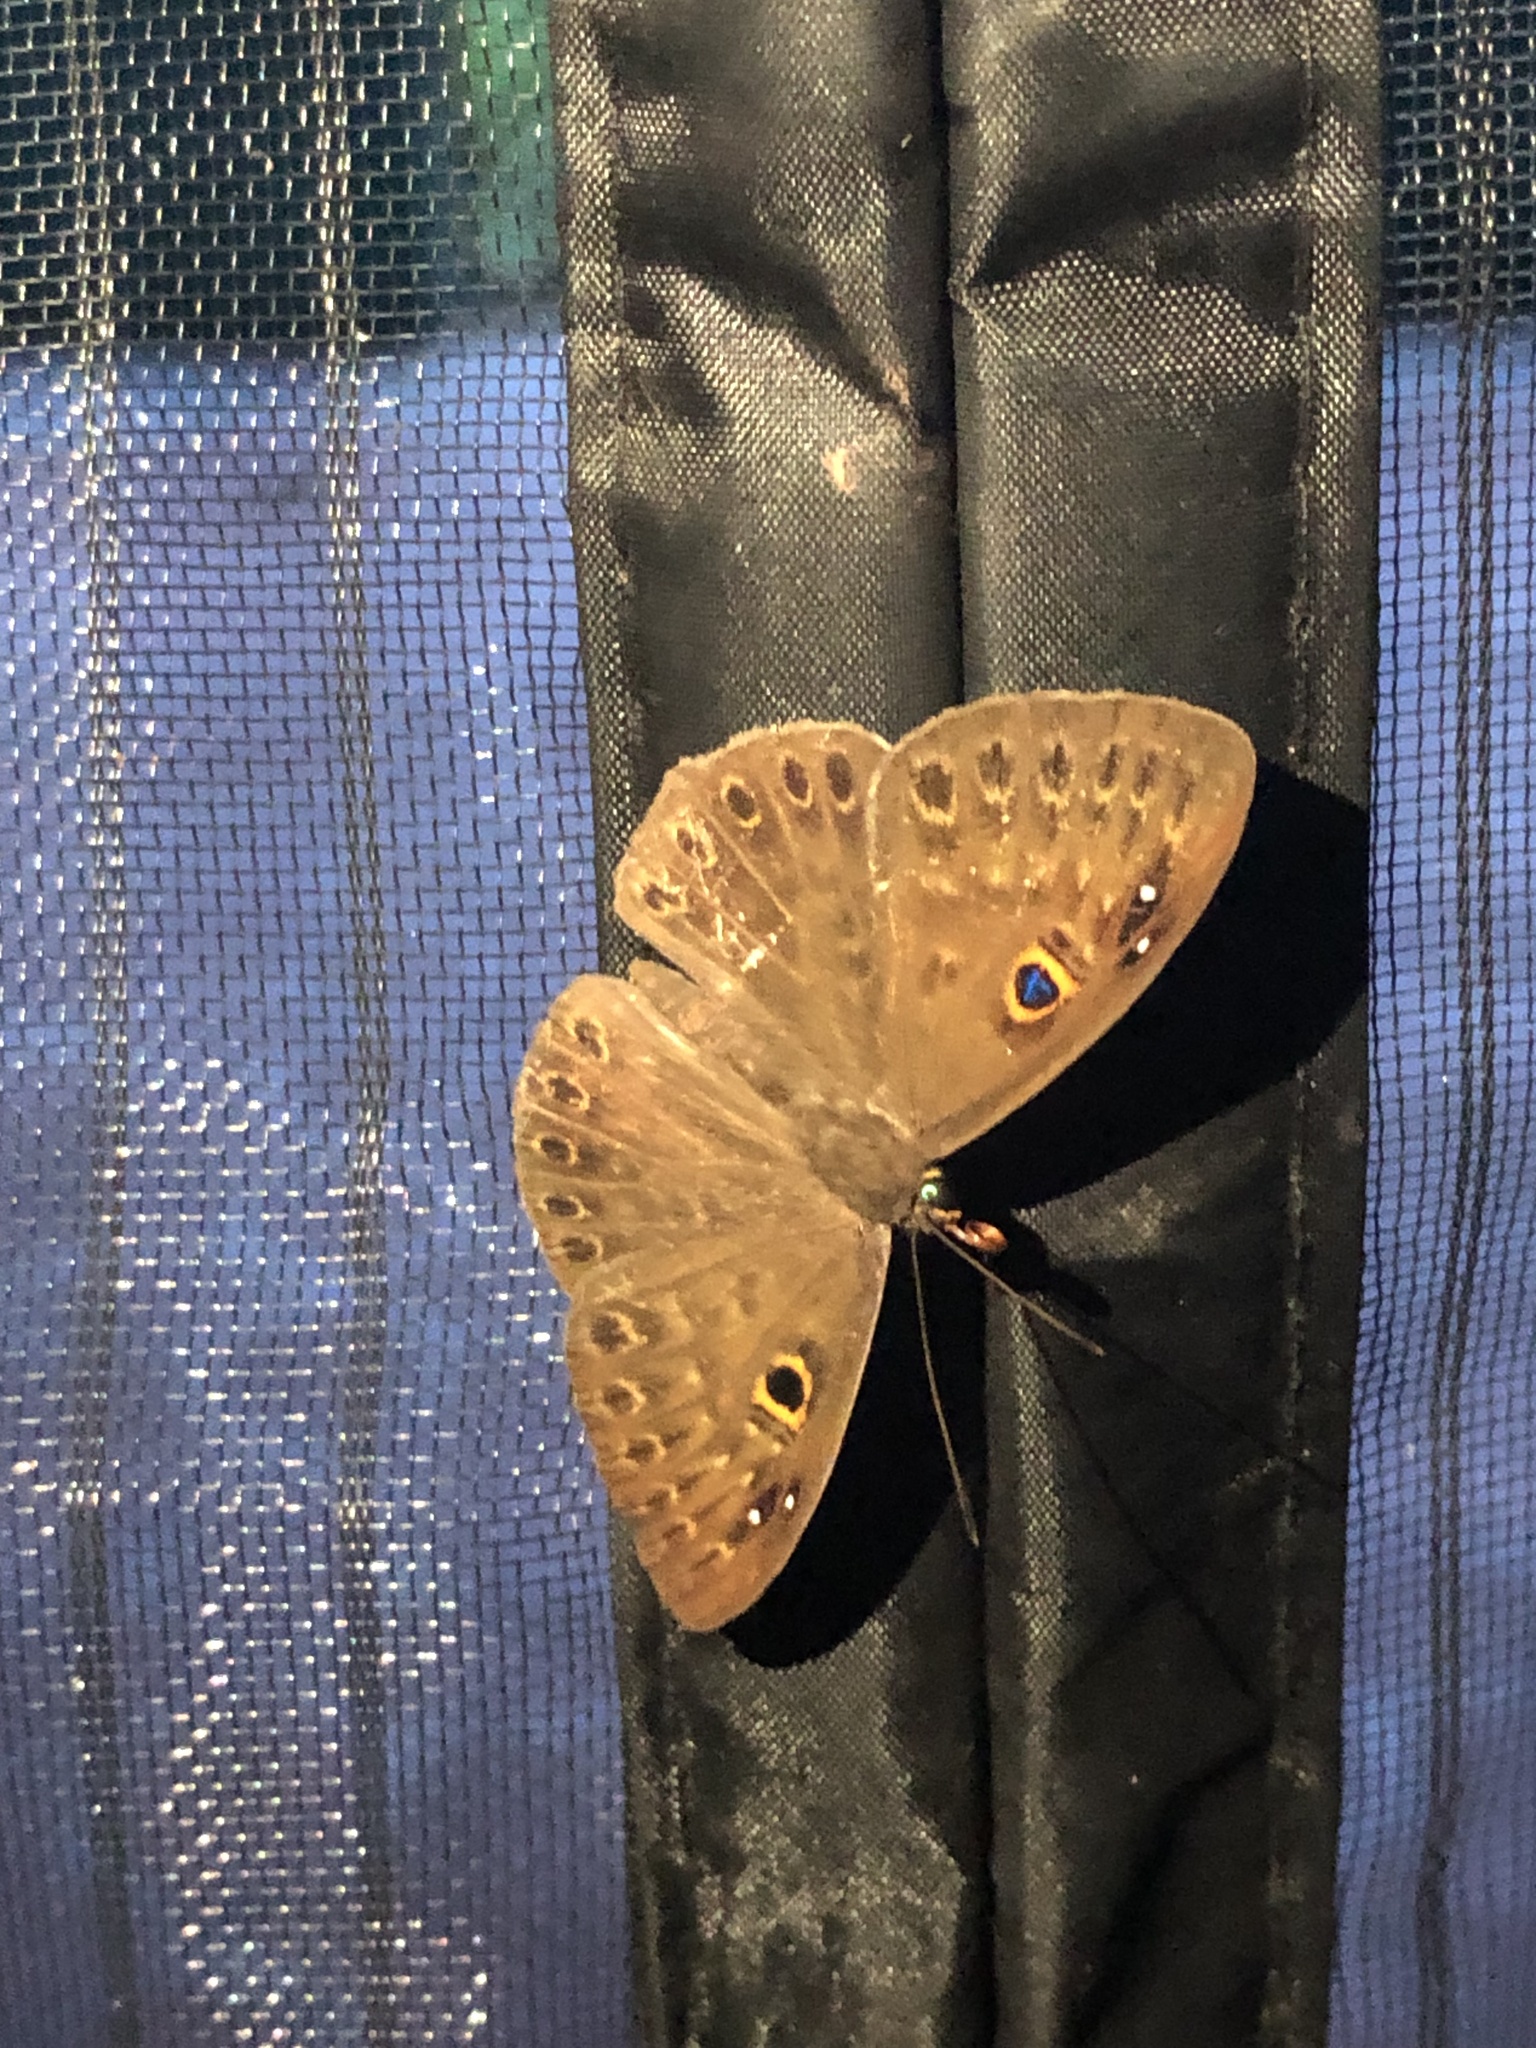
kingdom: Animalia
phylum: Cnidaria
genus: Eurybia
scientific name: Eurybia dardus
